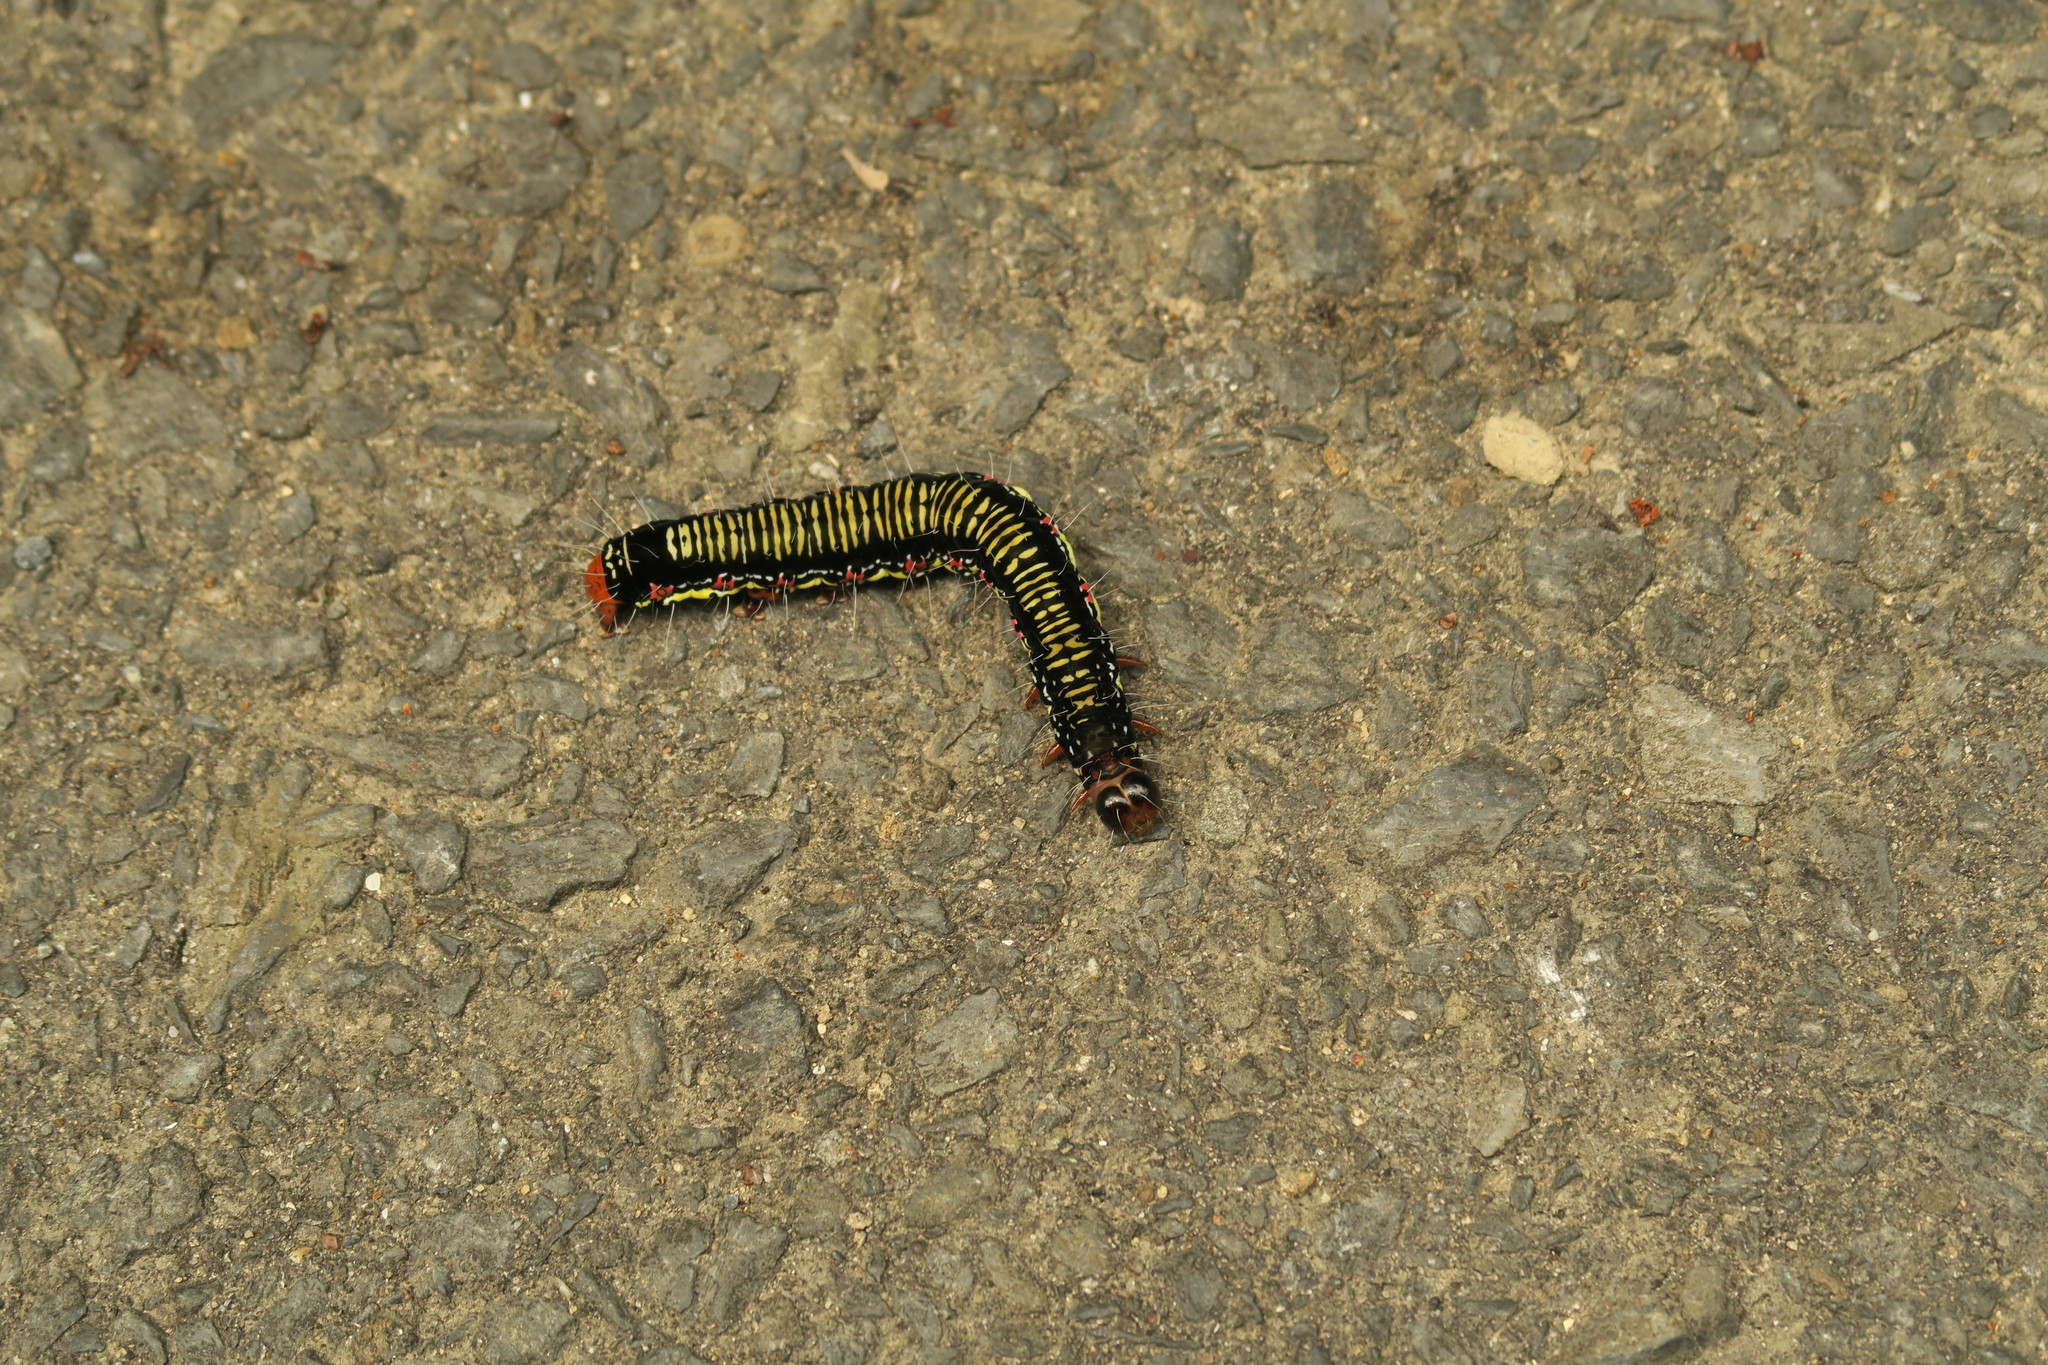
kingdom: Animalia
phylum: Arthropoda
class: Insecta
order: Lepidoptera
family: Erebidae
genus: Arcte
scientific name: Arcte coerula
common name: Ramie moth
